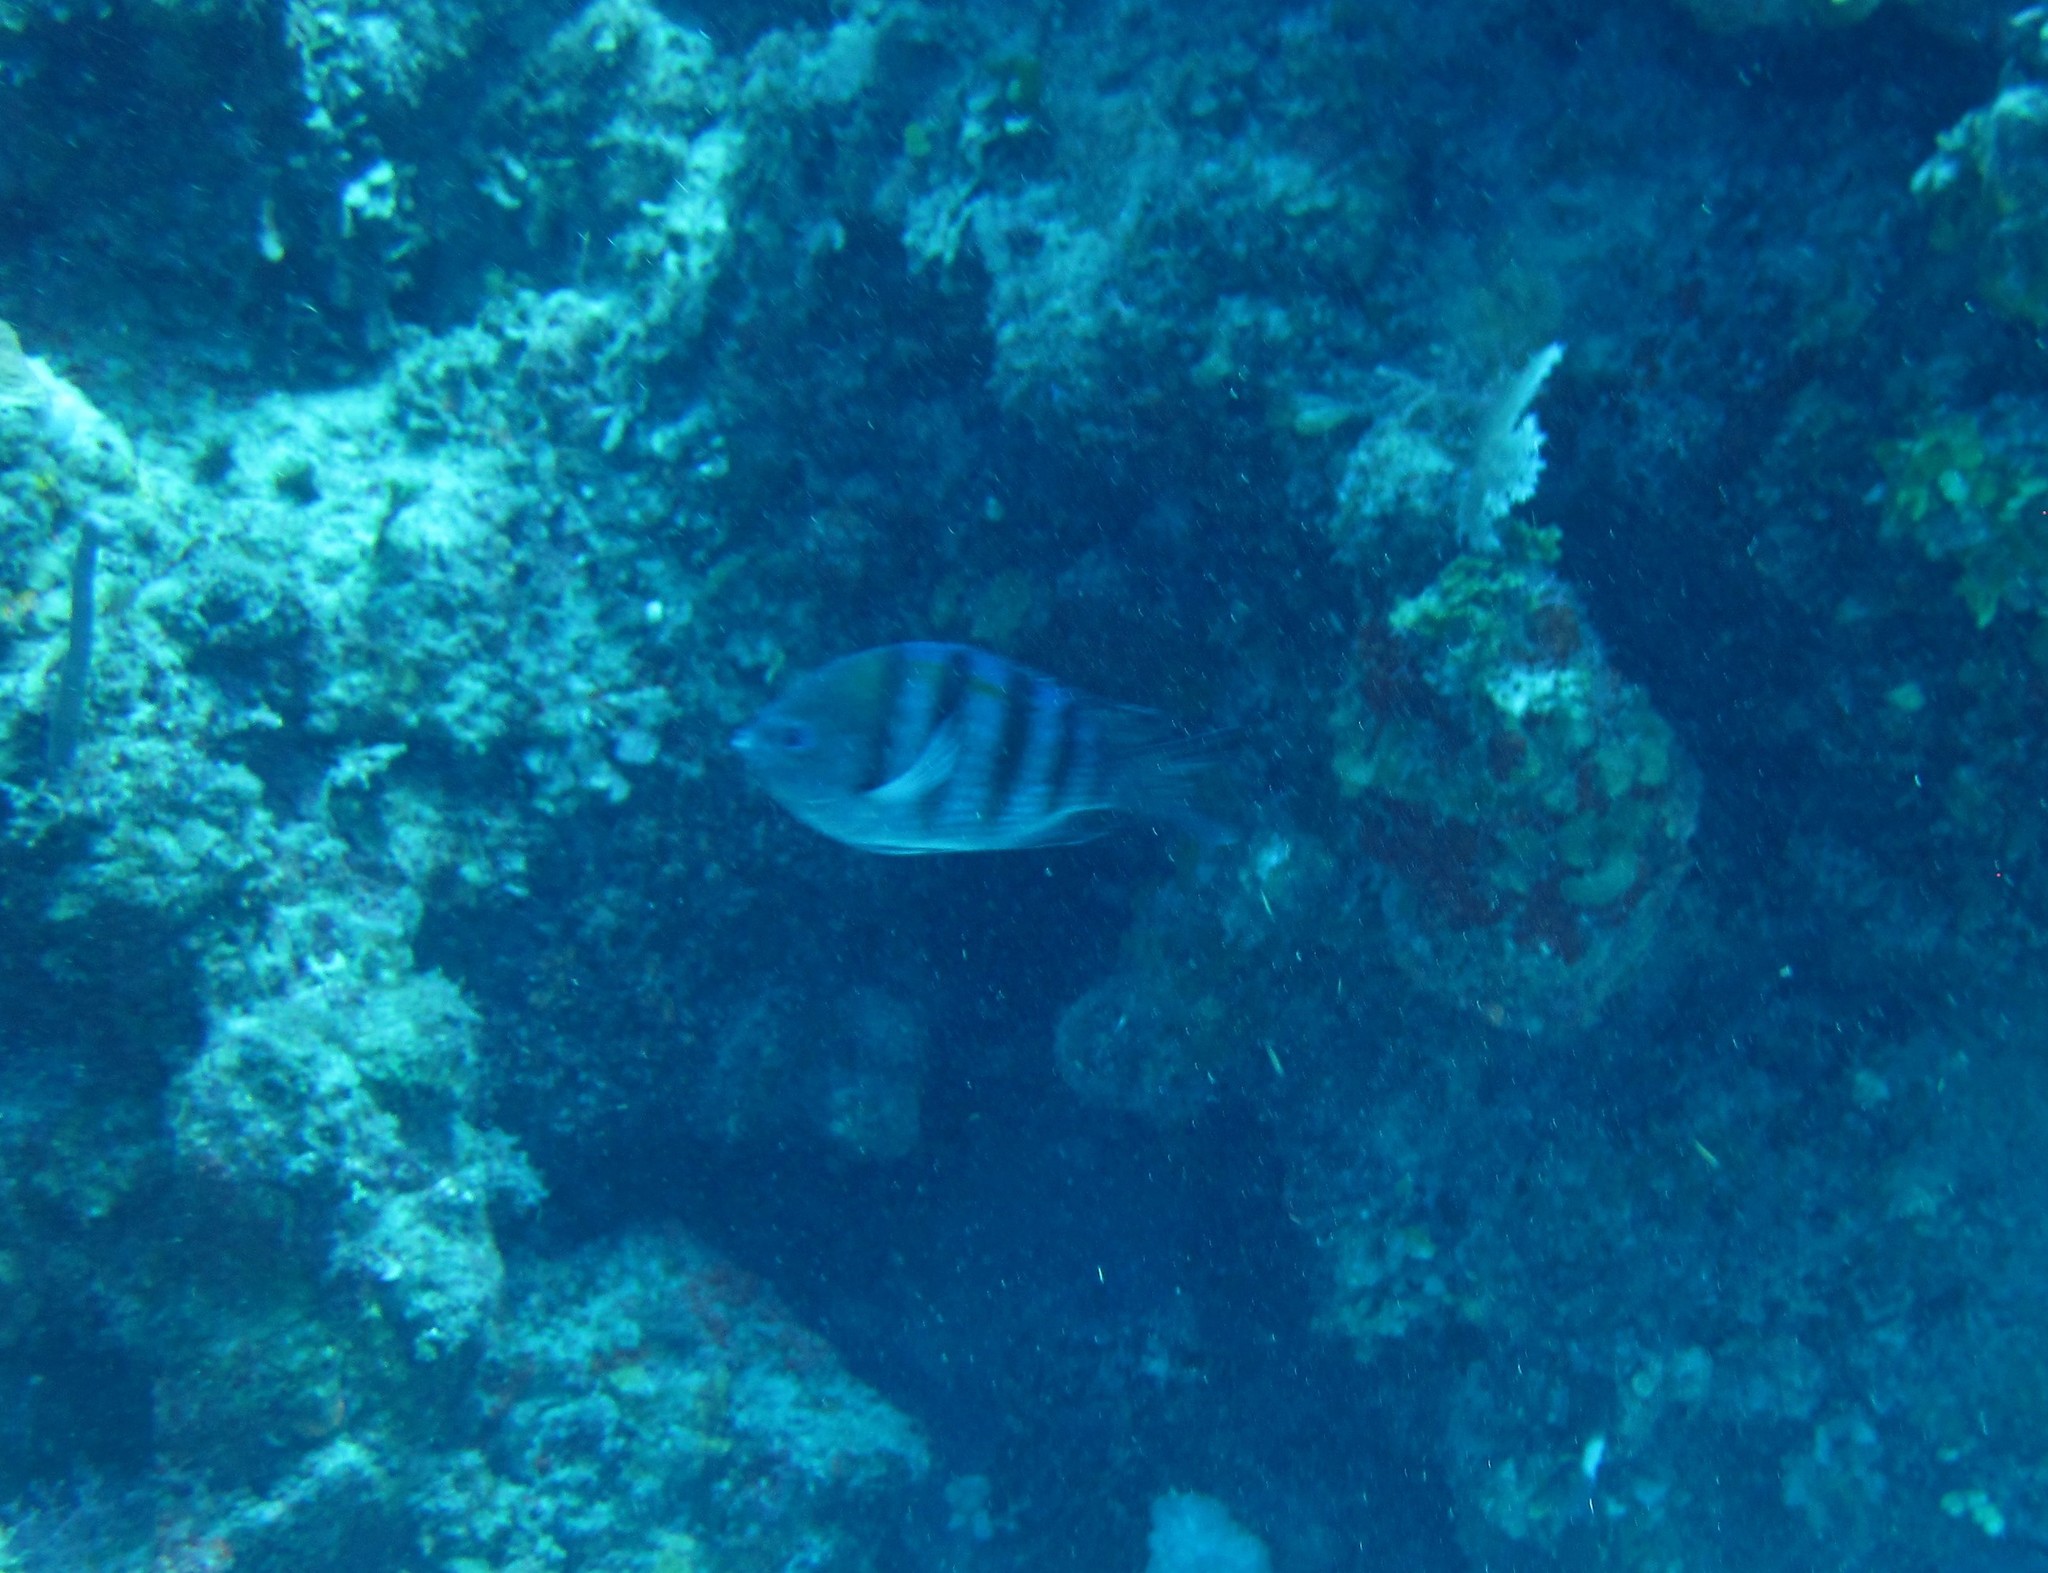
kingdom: Animalia
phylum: Chordata
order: Perciformes
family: Pomacentridae
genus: Abudefduf
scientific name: Abudefduf saxatilis
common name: Sergeant major
